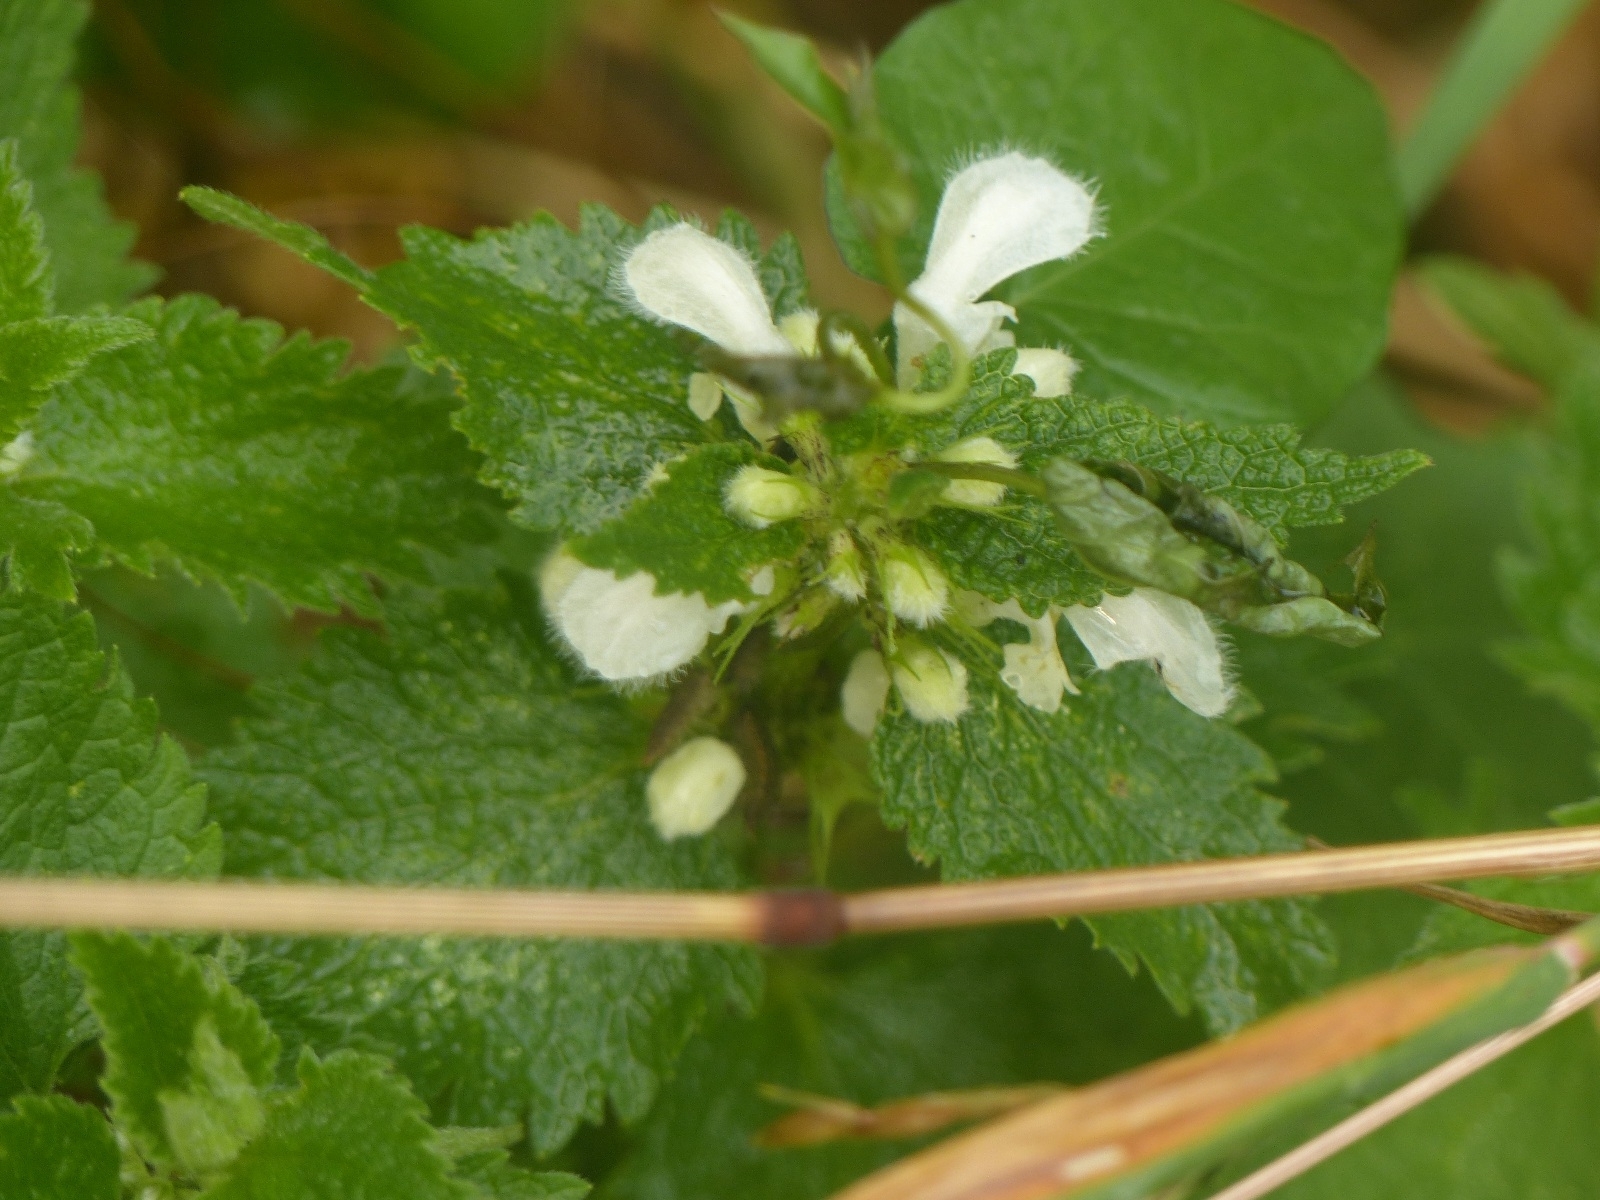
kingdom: Plantae
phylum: Tracheophyta
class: Magnoliopsida
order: Lamiales
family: Lamiaceae
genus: Lamium
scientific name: Lamium album
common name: White dead-nettle
